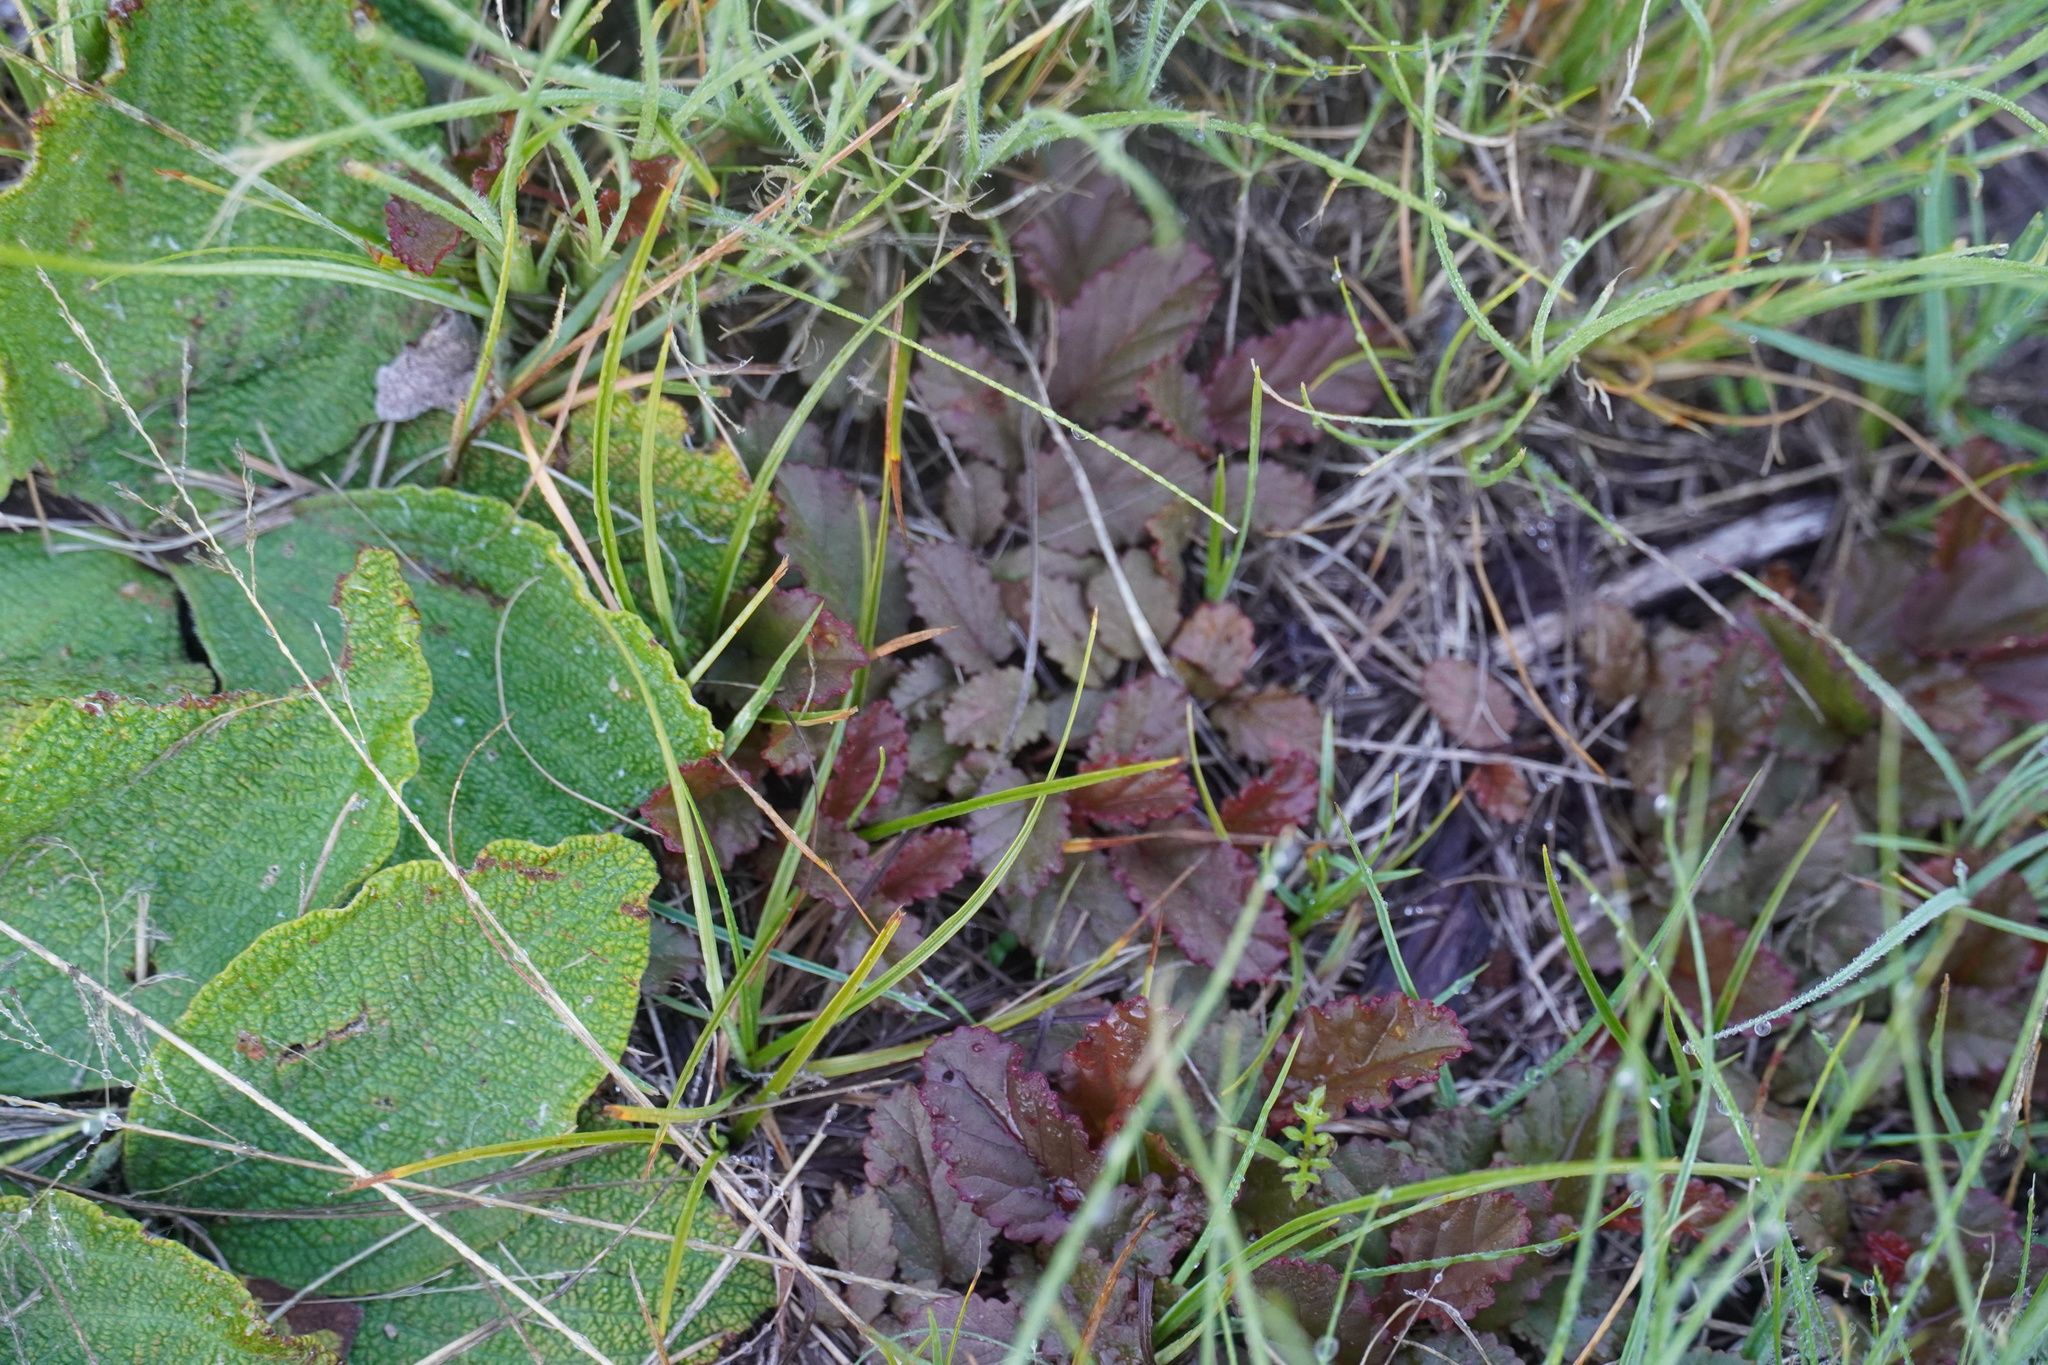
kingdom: Plantae
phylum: Tracheophyta
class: Magnoliopsida
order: Malvales
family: Malvaceae
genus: Hermannia
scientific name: Hermannia depressa
